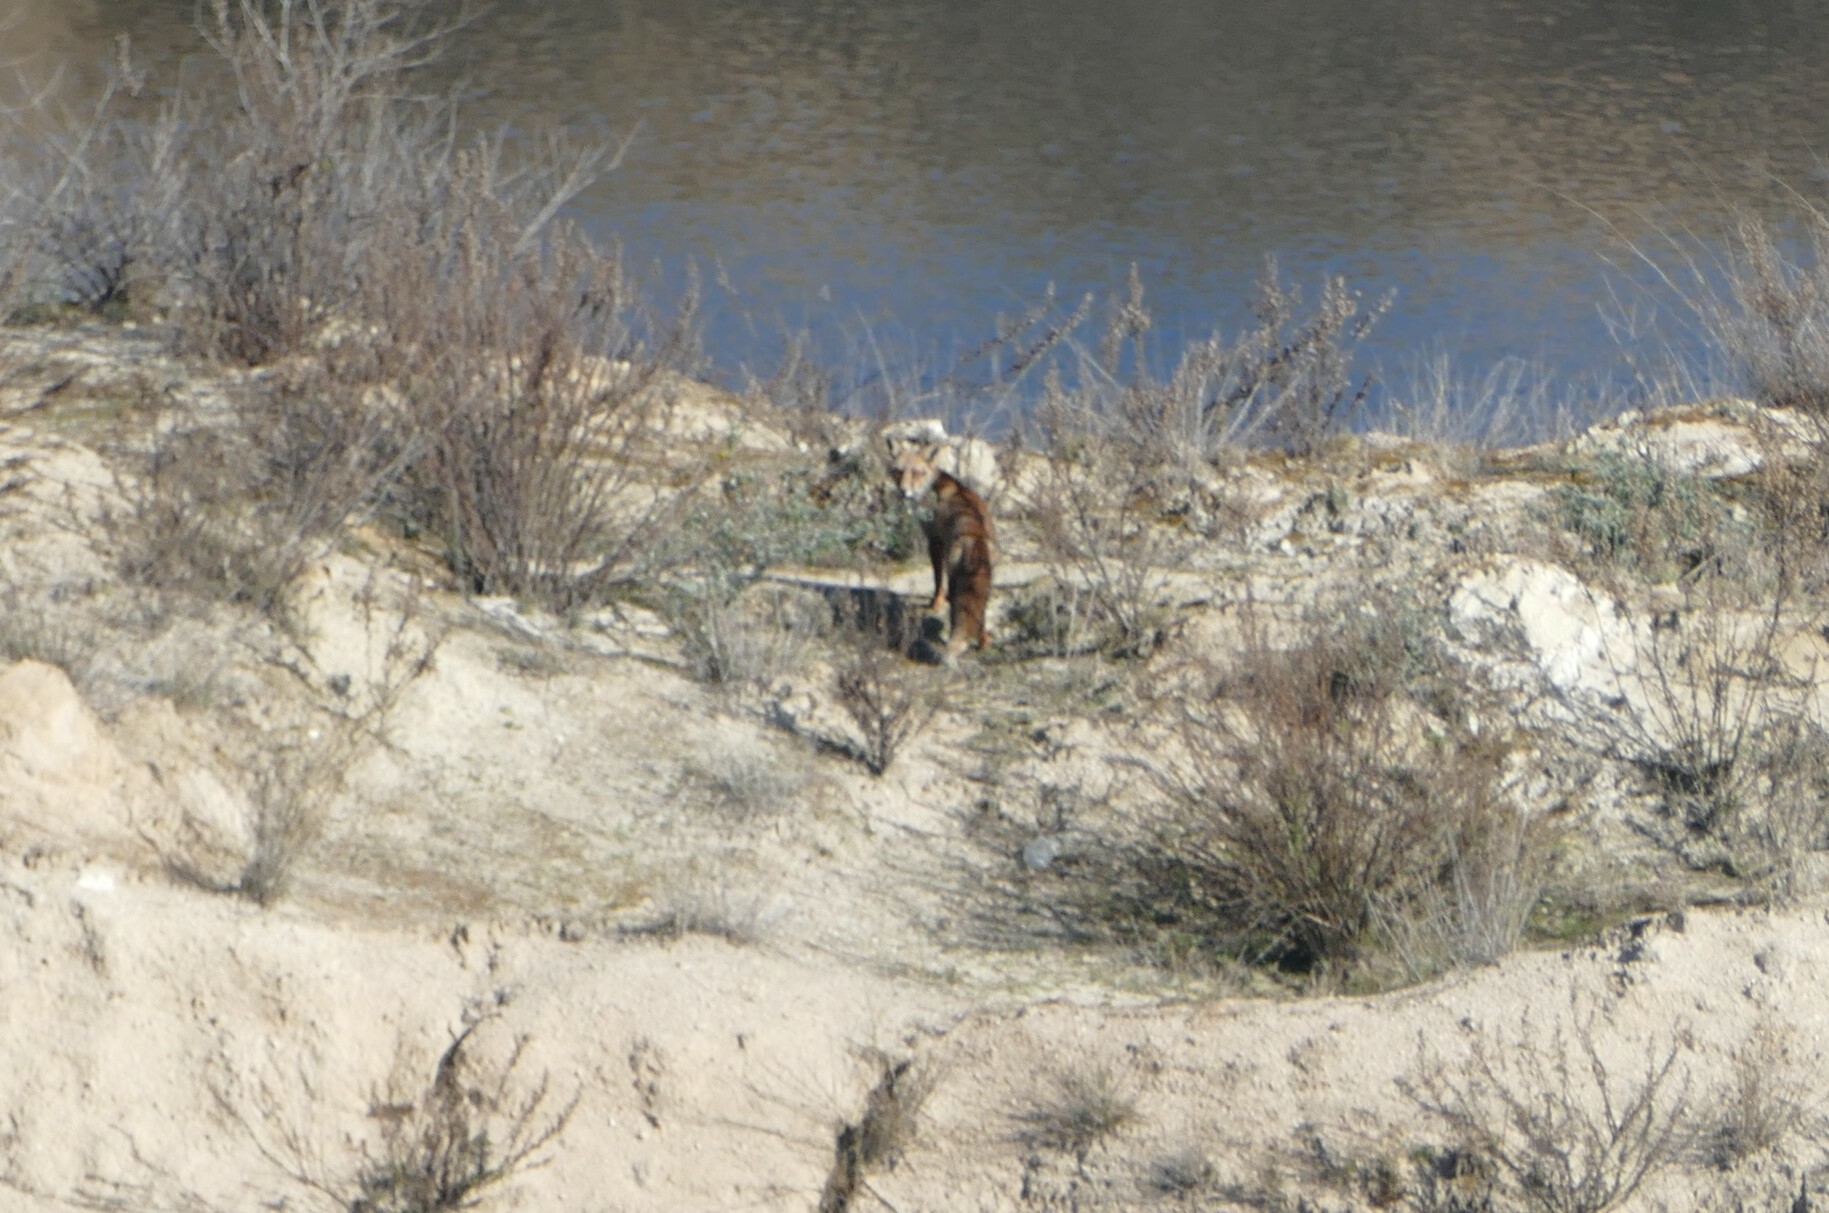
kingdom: Animalia
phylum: Chordata
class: Mammalia
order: Carnivora
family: Canidae
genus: Vulpes
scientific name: Vulpes vulpes
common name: Red fox
